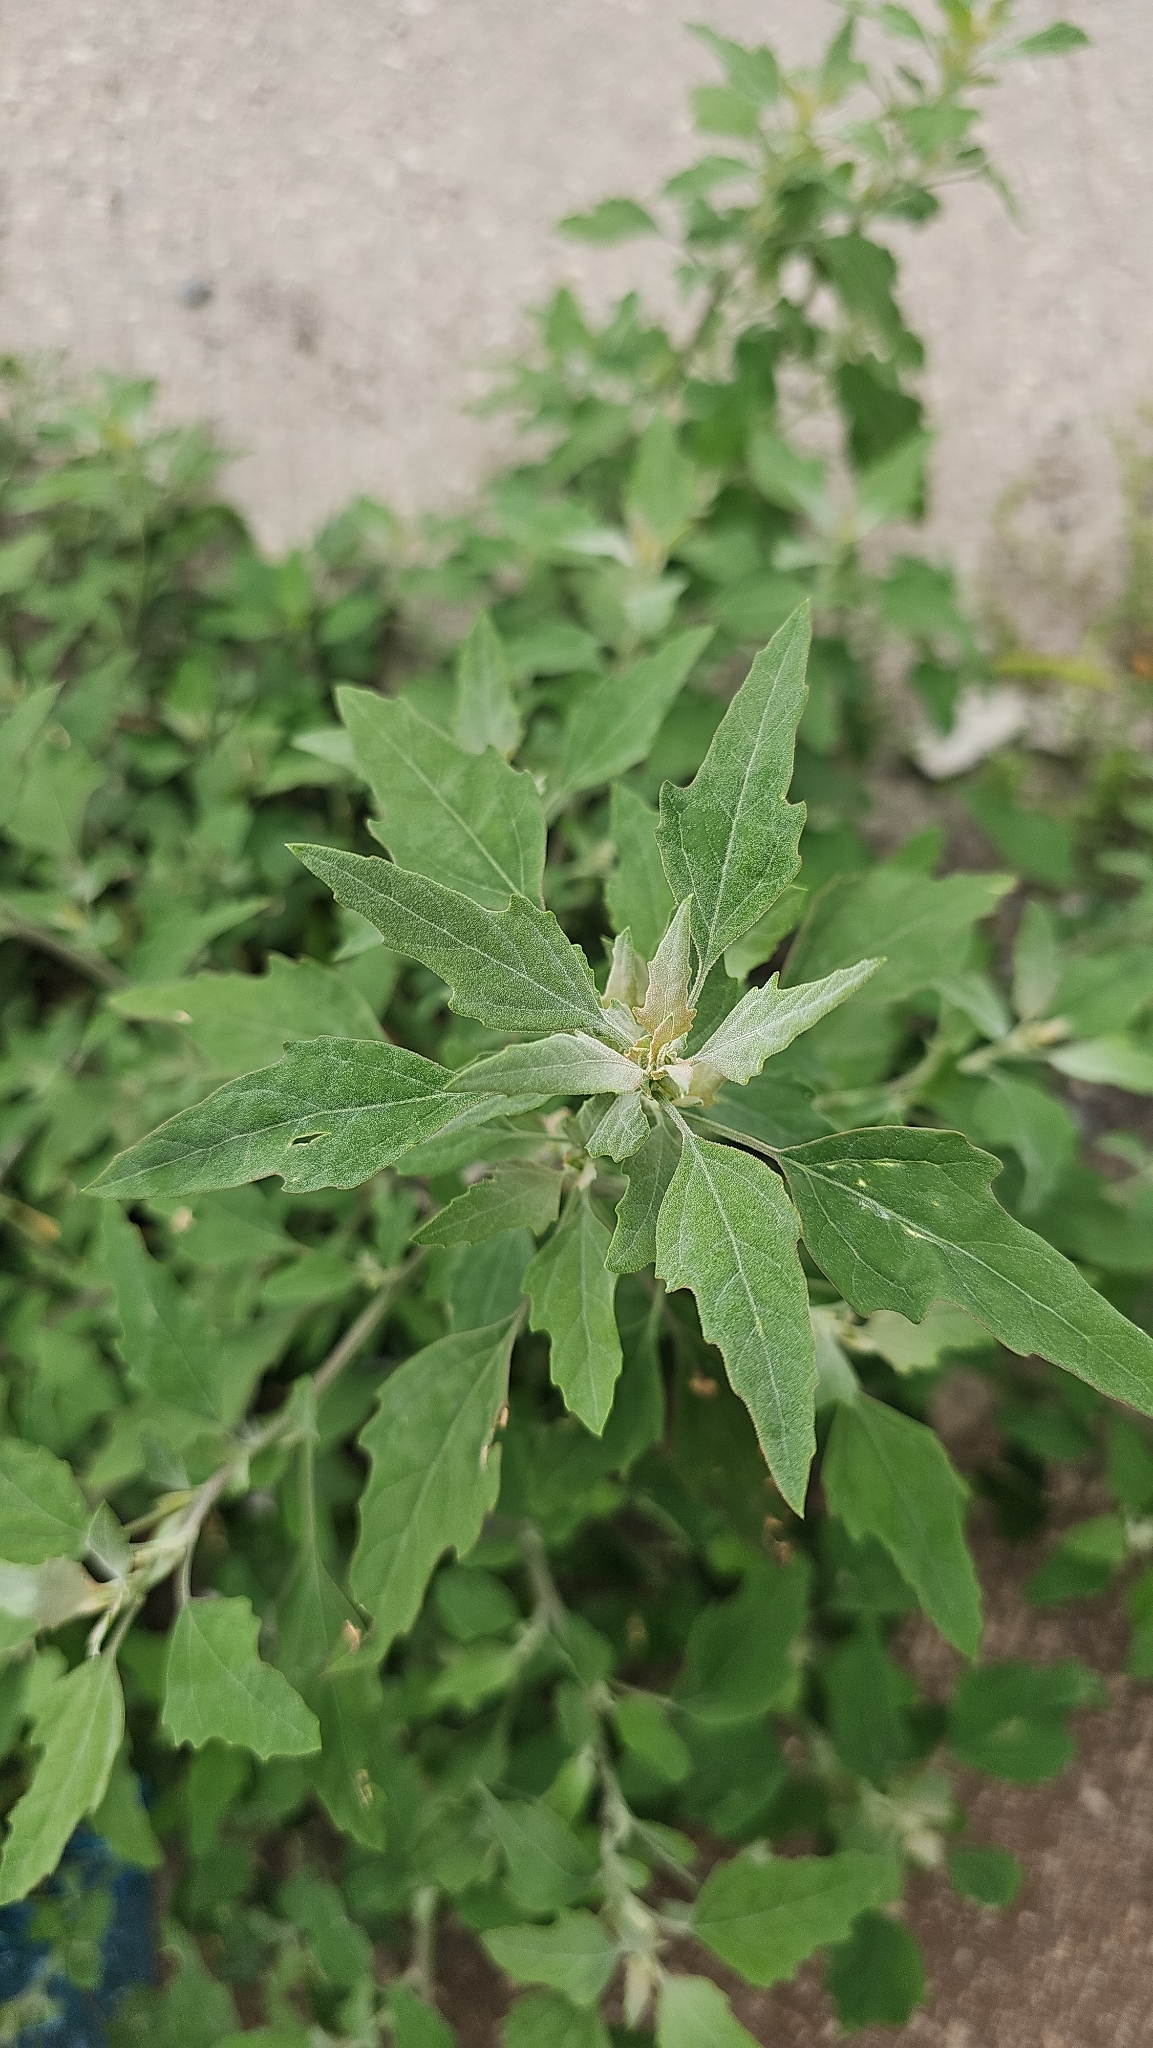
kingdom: Plantae
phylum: Tracheophyta
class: Magnoliopsida
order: Caryophyllales
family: Amaranthaceae
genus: Chenopodium
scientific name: Chenopodium album
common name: Fat-hen
